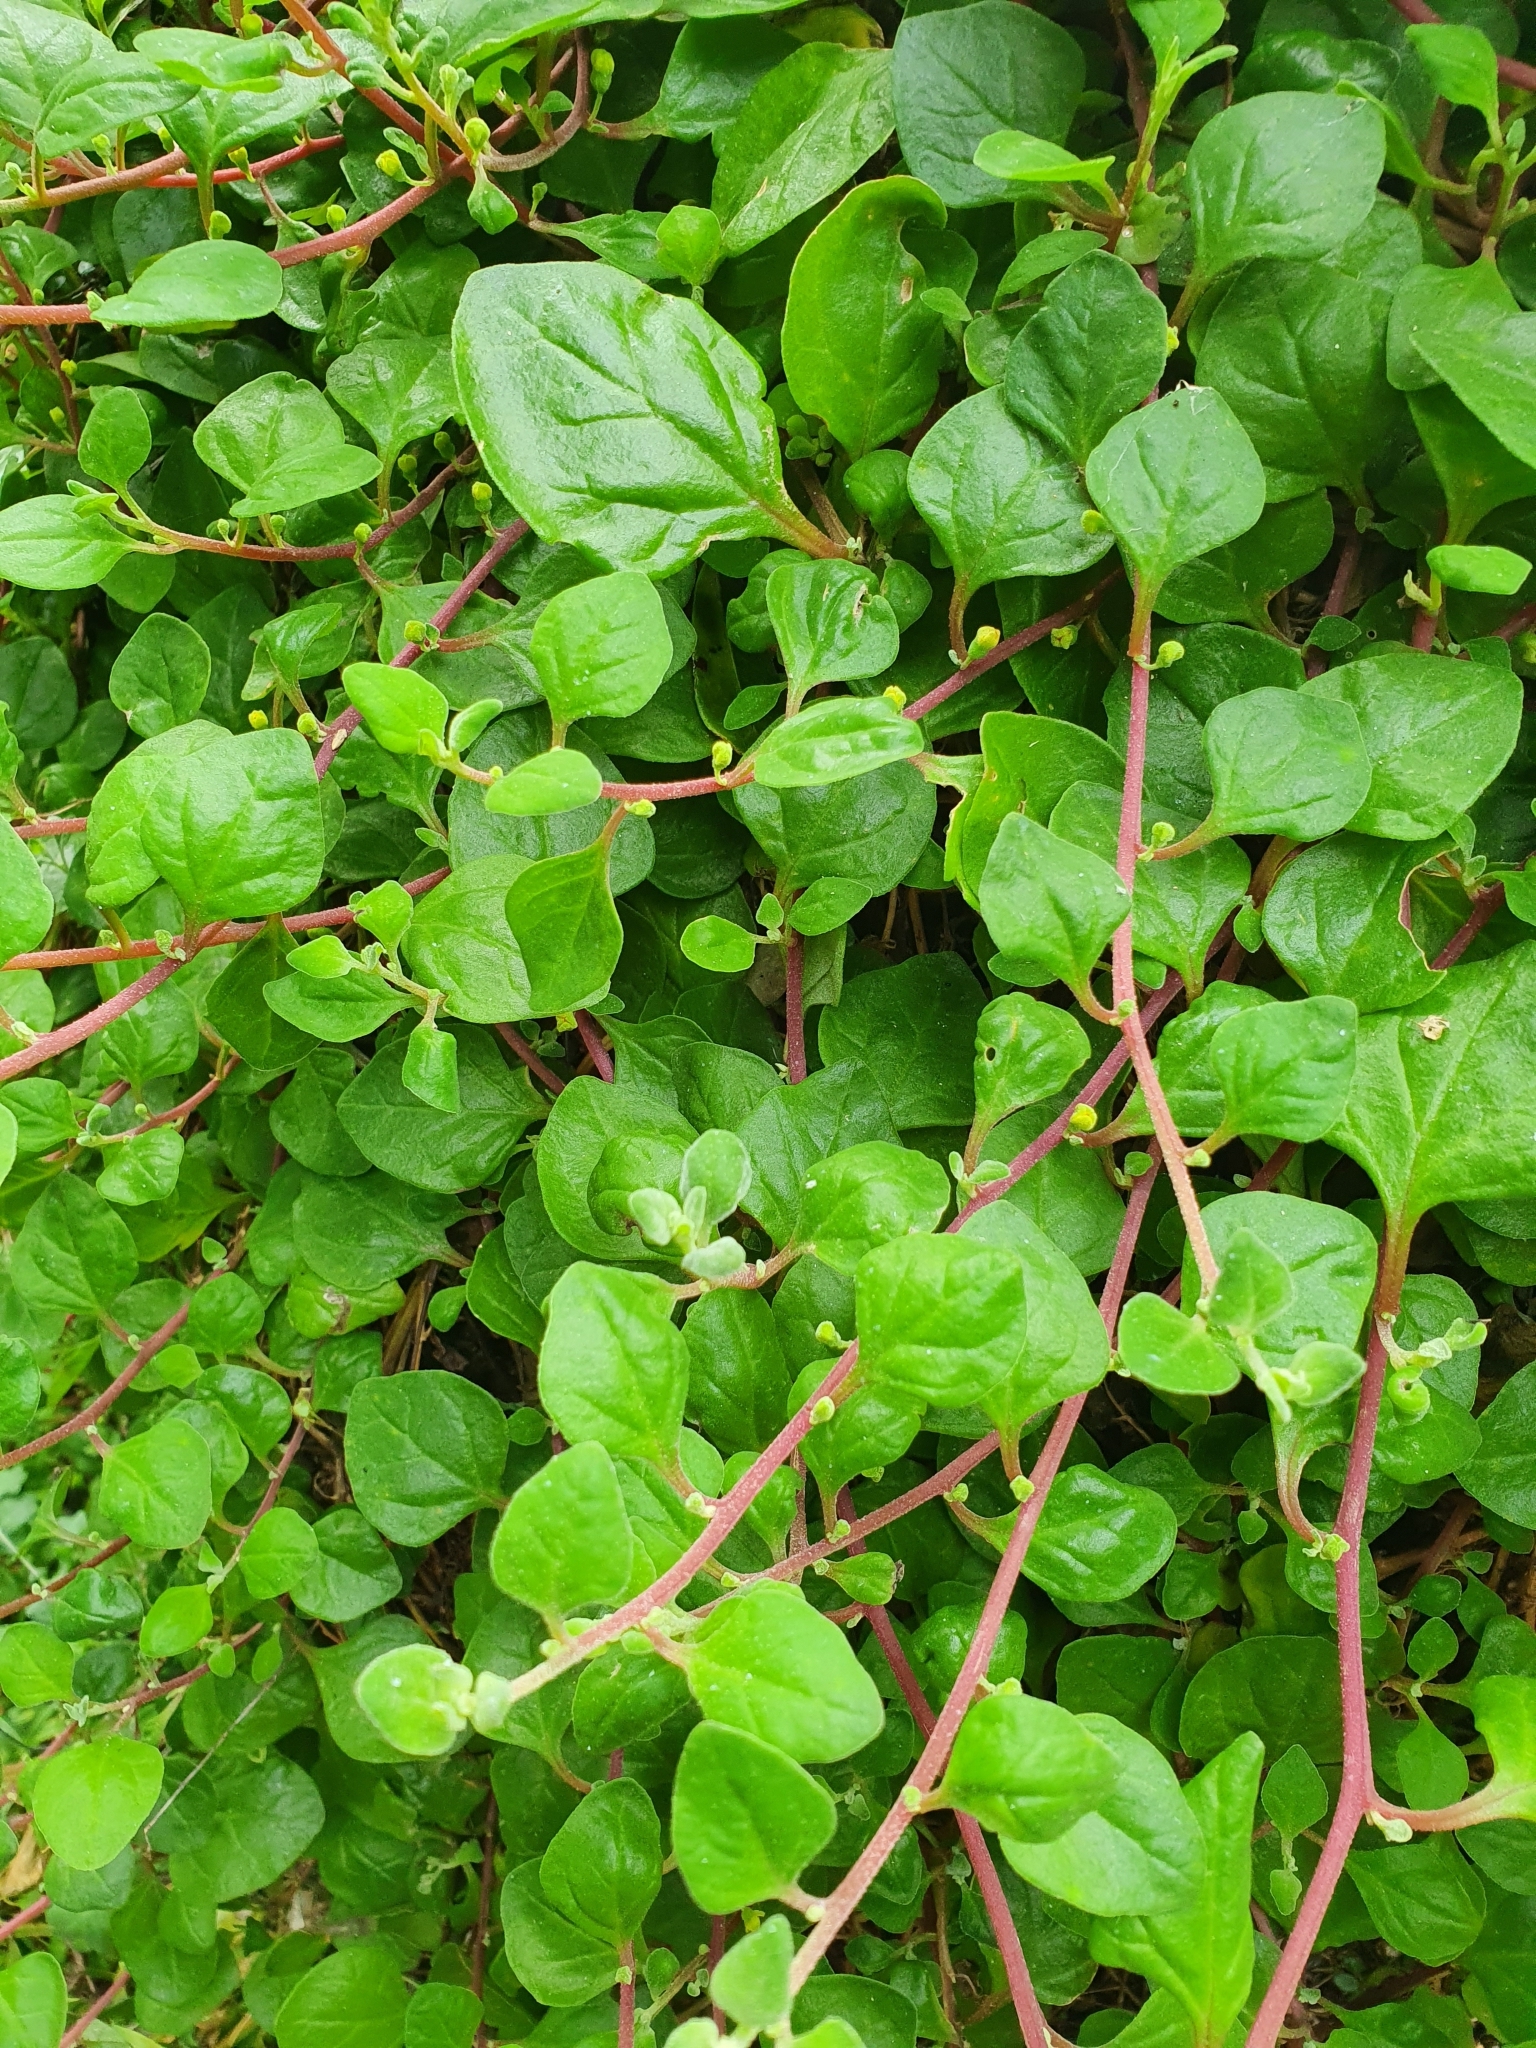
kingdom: Plantae
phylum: Tracheophyta
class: Magnoliopsida
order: Caryophyllales
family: Aizoaceae
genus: Tetragonia
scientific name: Tetragonia implexicoma
